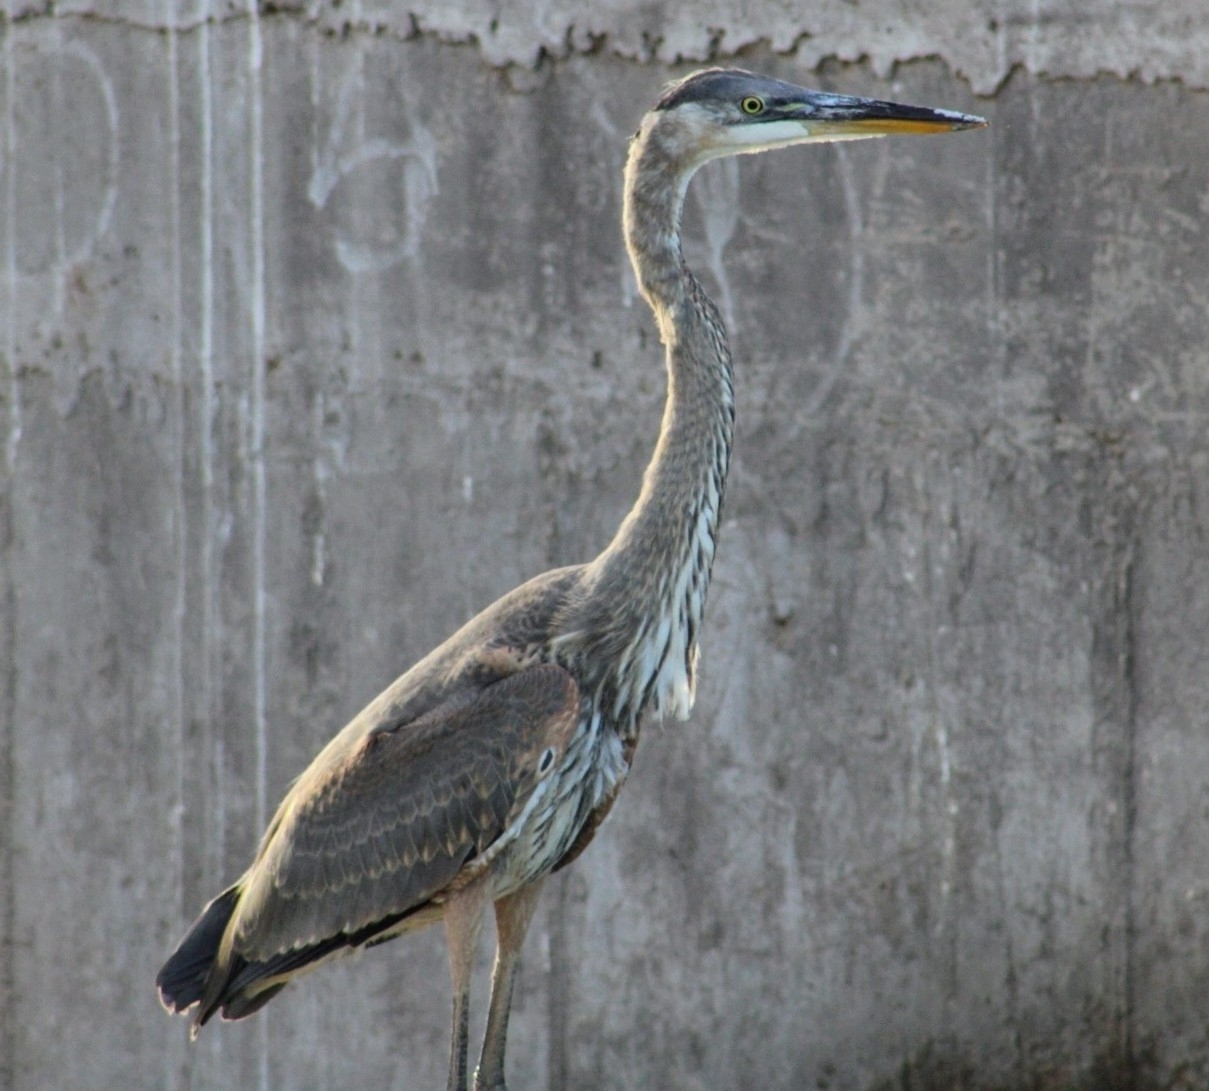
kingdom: Animalia
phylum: Chordata
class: Aves
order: Pelecaniformes
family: Ardeidae
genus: Ardea
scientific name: Ardea herodias
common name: Great blue heron
